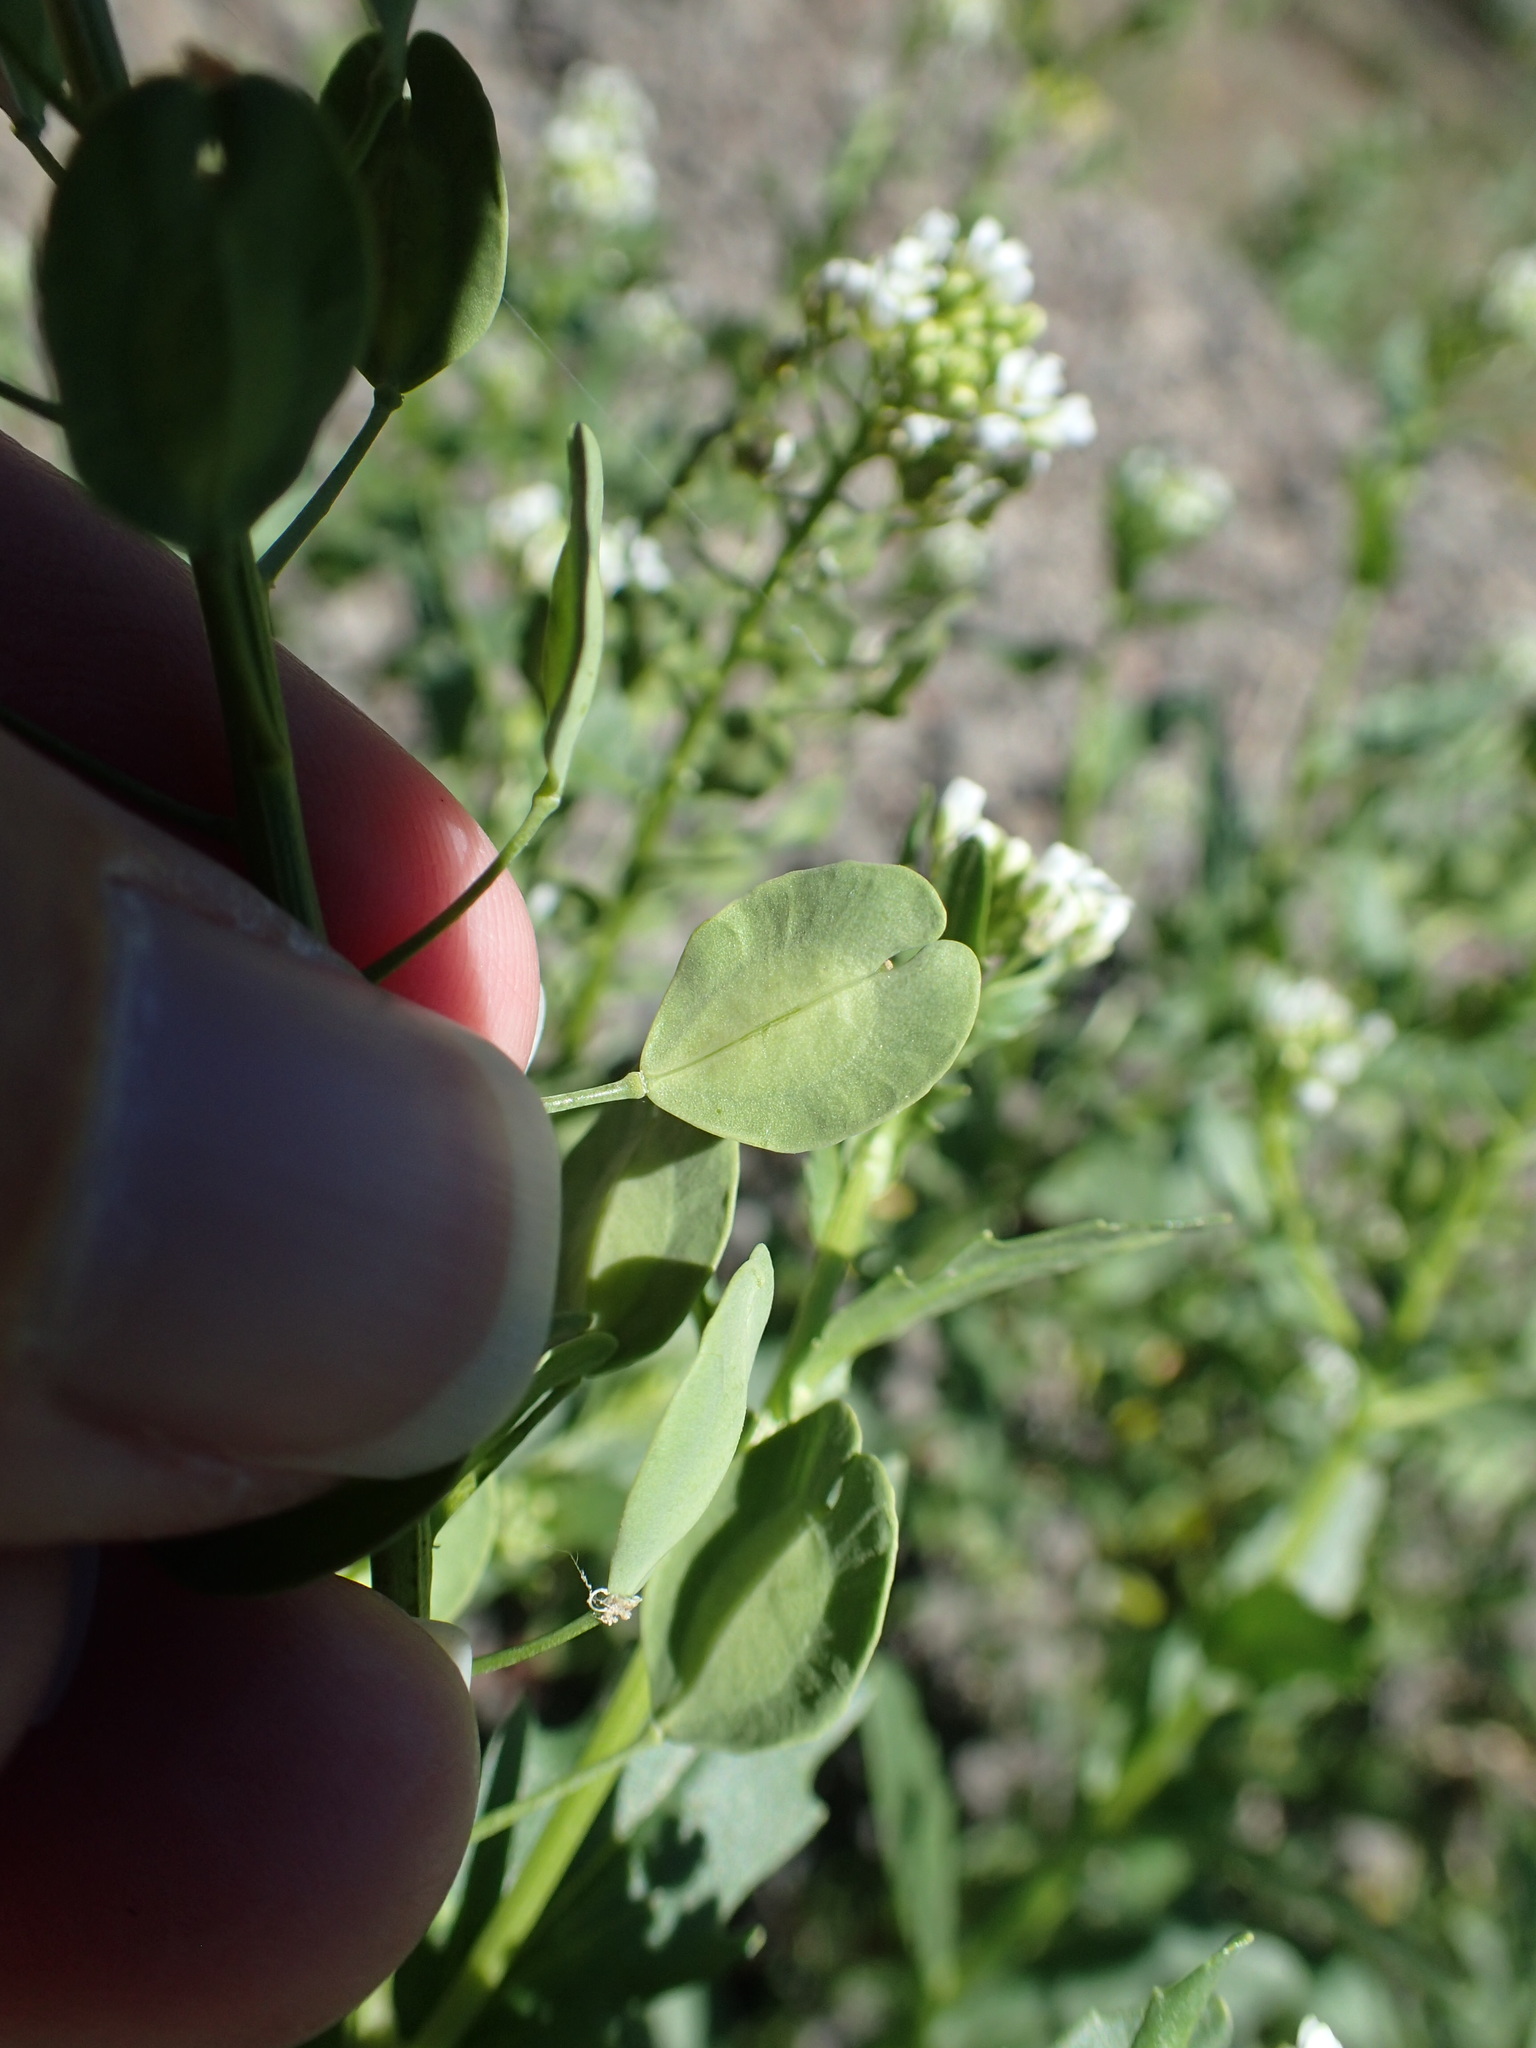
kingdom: Plantae
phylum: Tracheophyta
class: Magnoliopsida
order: Brassicales
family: Brassicaceae
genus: Thlaspi
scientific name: Thlaspi arvense
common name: Field pennycress
